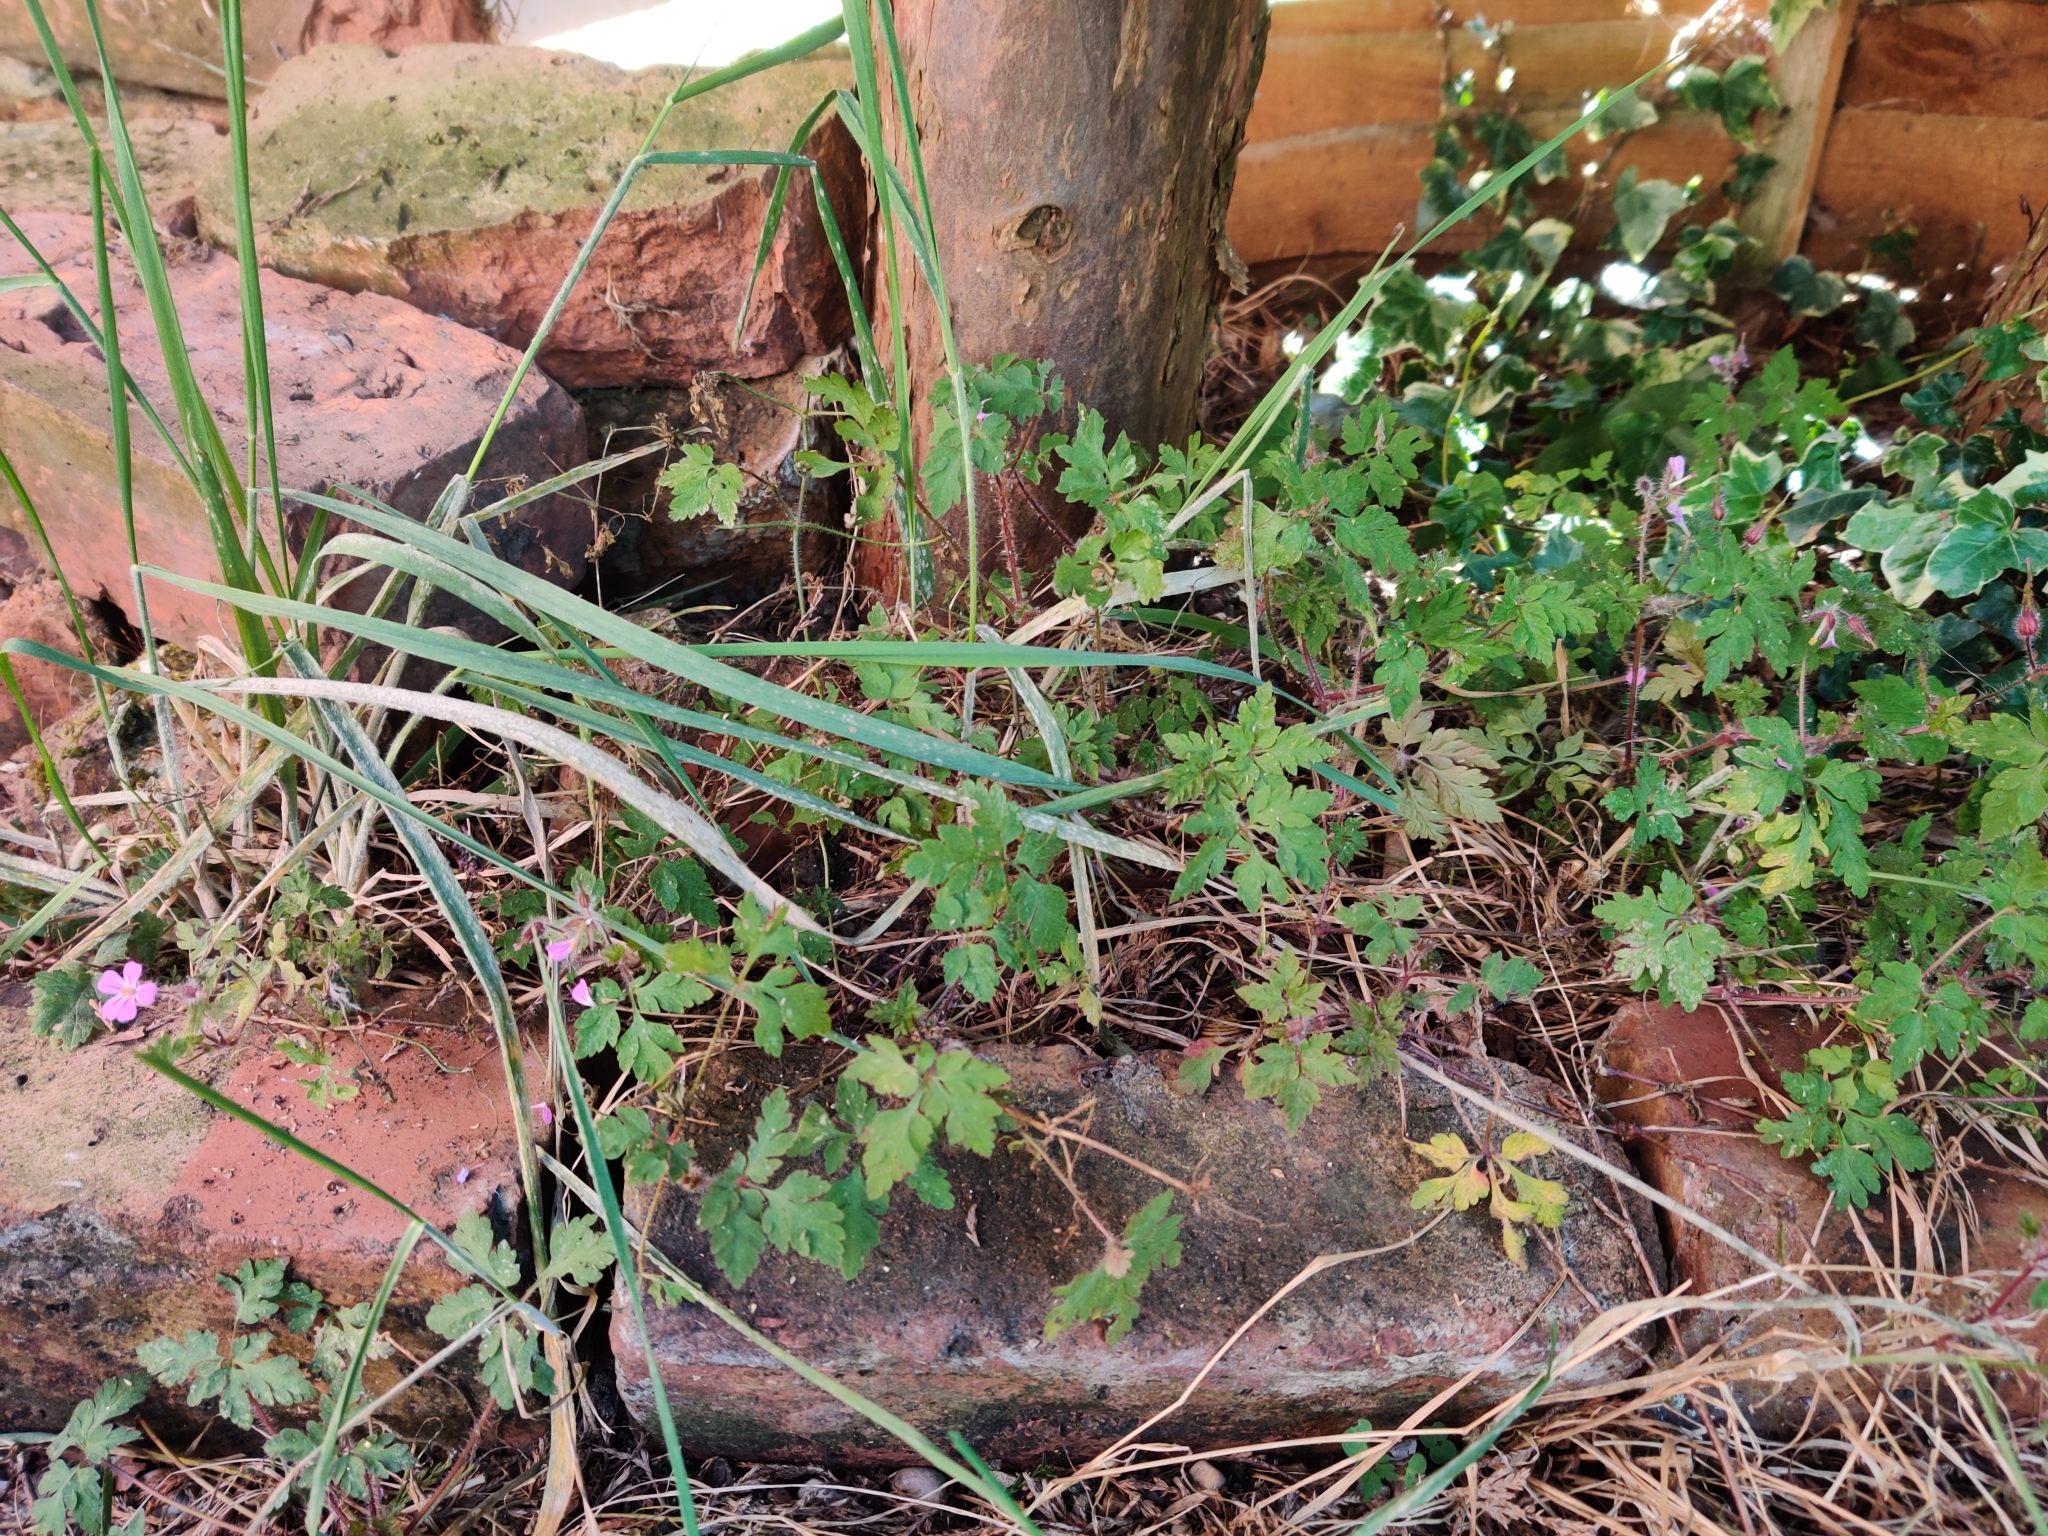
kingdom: Plantae
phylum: Tracheophyta
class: Magnoliopsida
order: Geraniales
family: Geraniaceae
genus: Geranium
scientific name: Geranium robertianum
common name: Herb-robert
